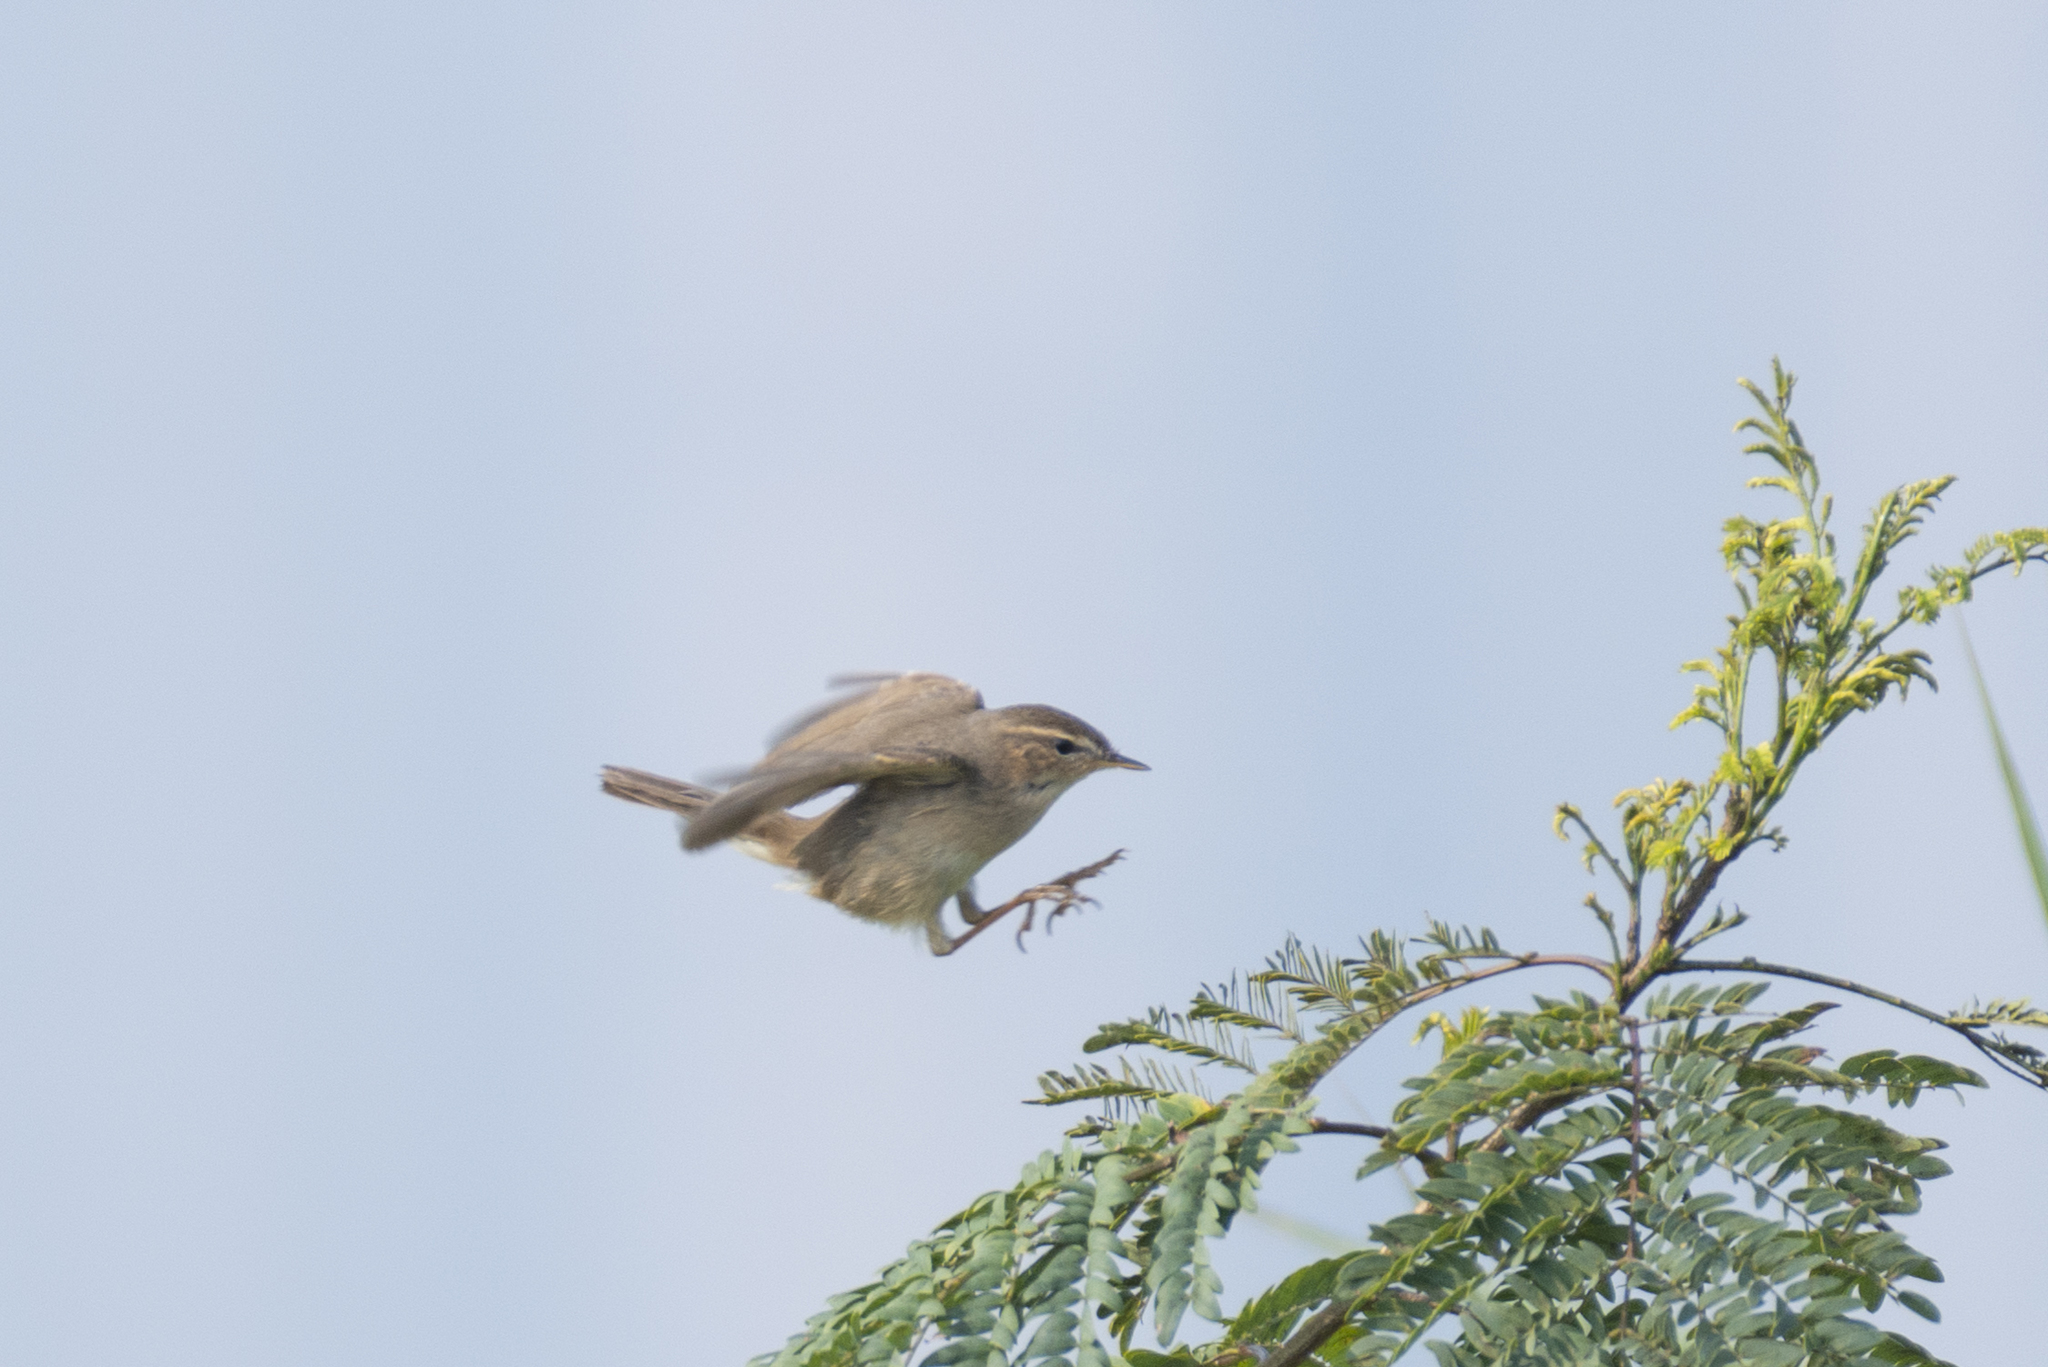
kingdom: Animalia
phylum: Chordata
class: Aves
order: Passeriformes
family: Phylloscopidae
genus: Phylloscopus
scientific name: Phylloscopus fuscatus
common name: Dusky warbler
